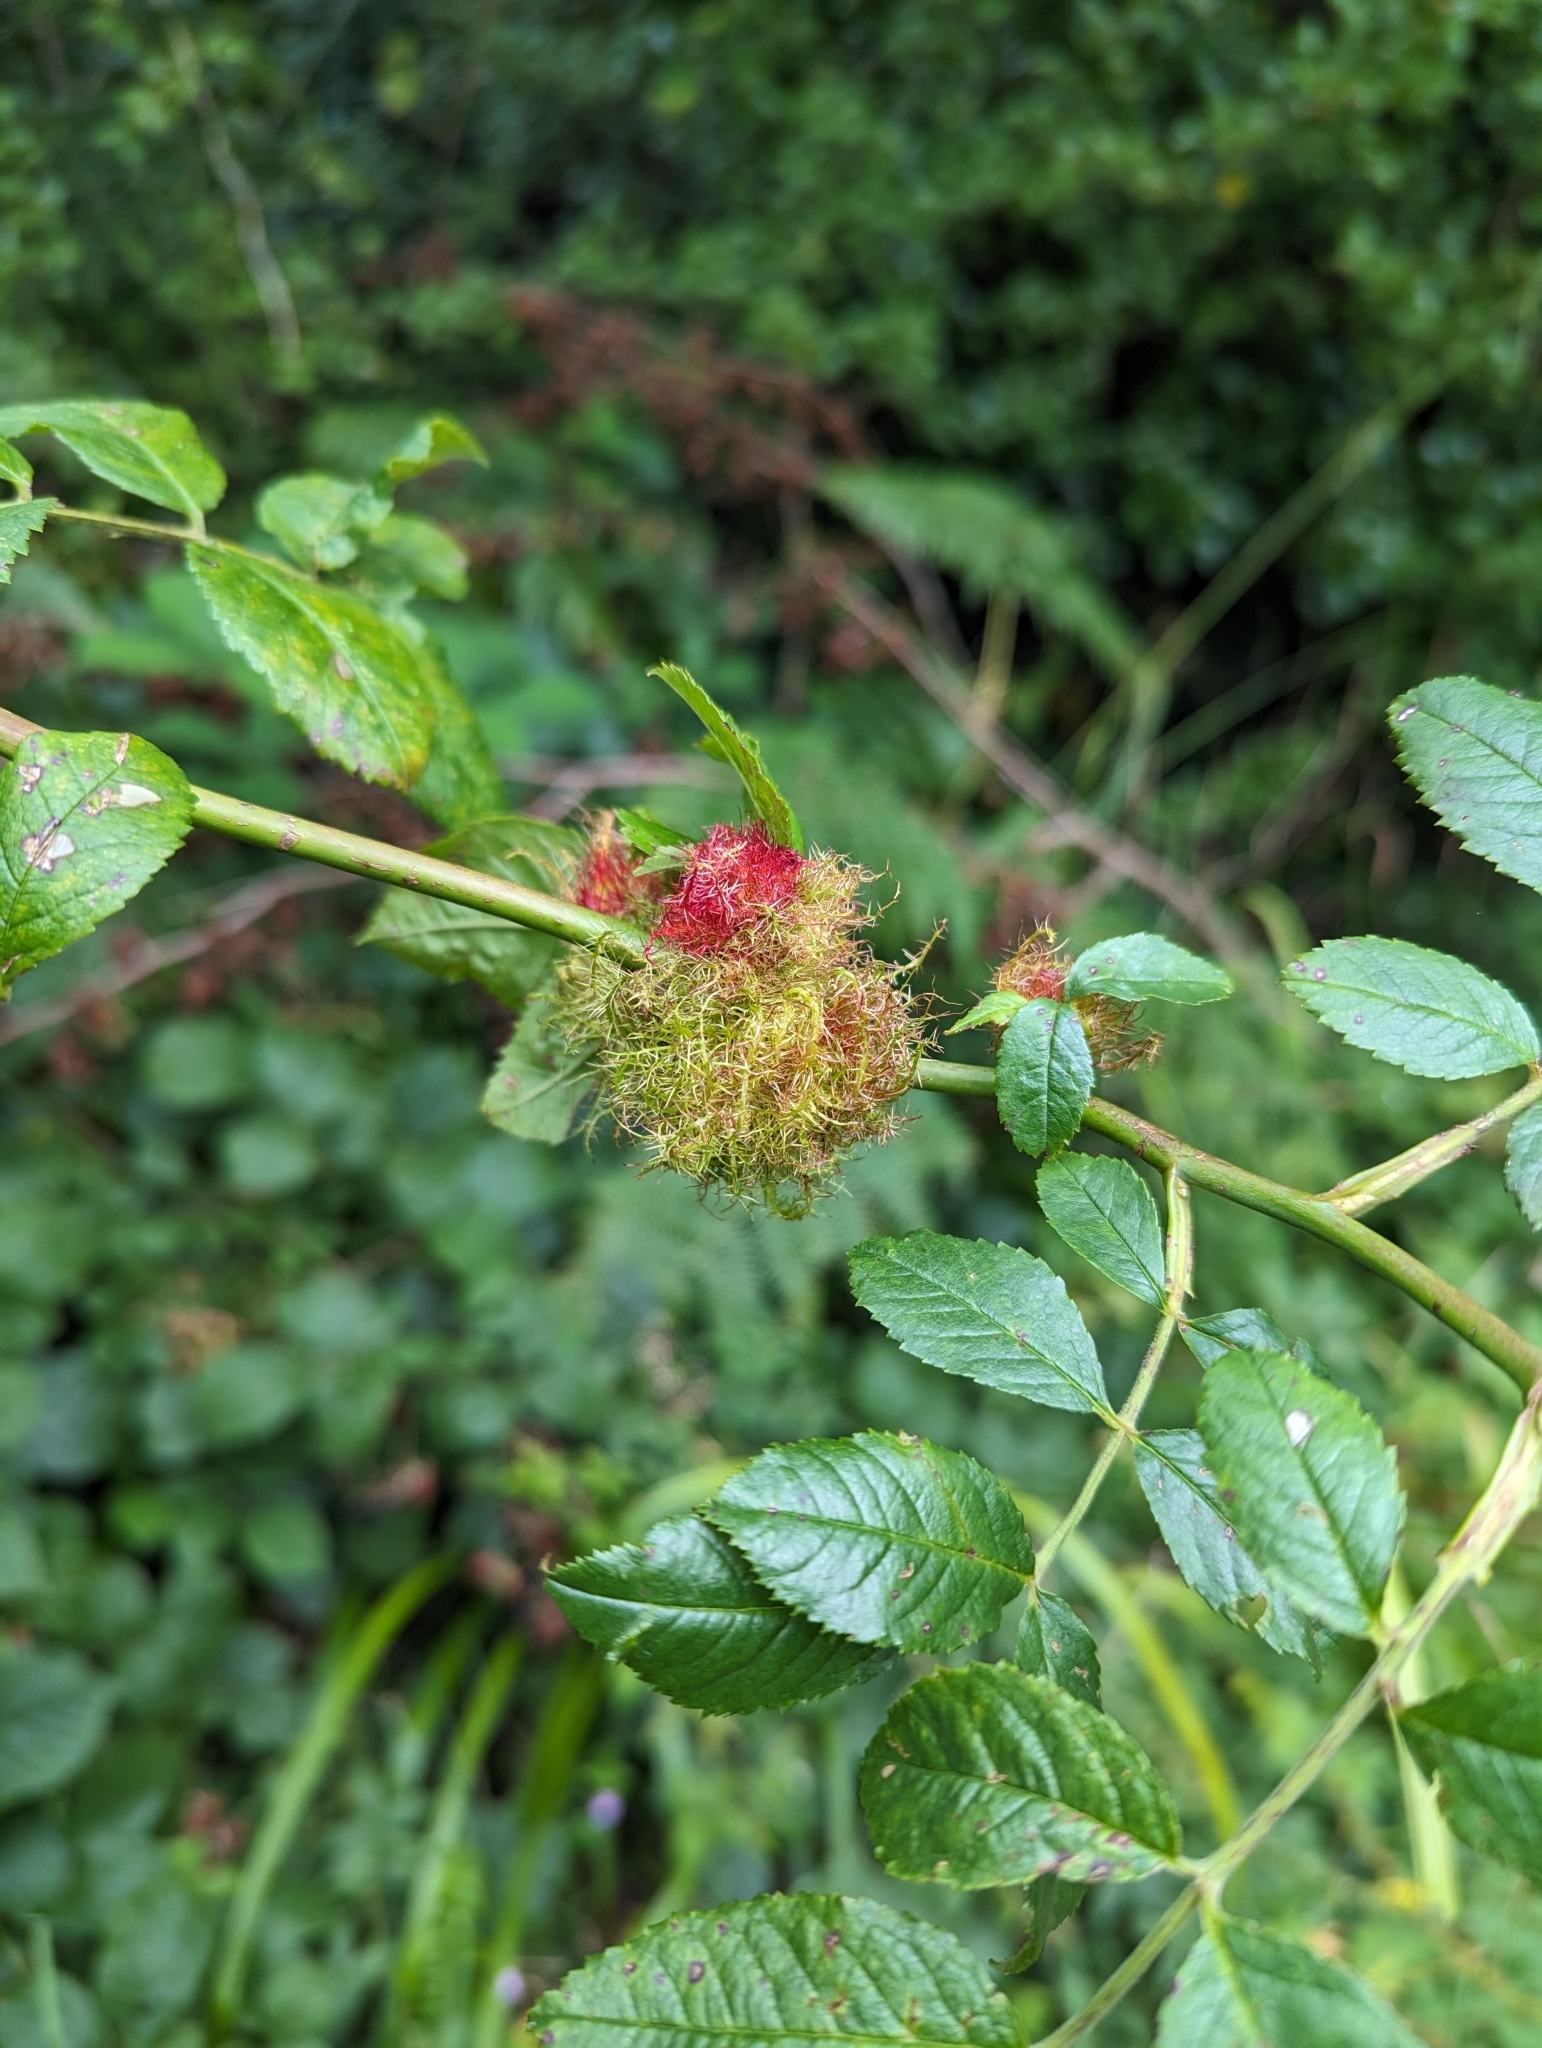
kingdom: Animalia
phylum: Arthropoda
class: Insecta
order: Hymenoptera
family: Cynipidae
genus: Diplolepis
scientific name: Diplolepis rosae
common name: Bedeguar gall
